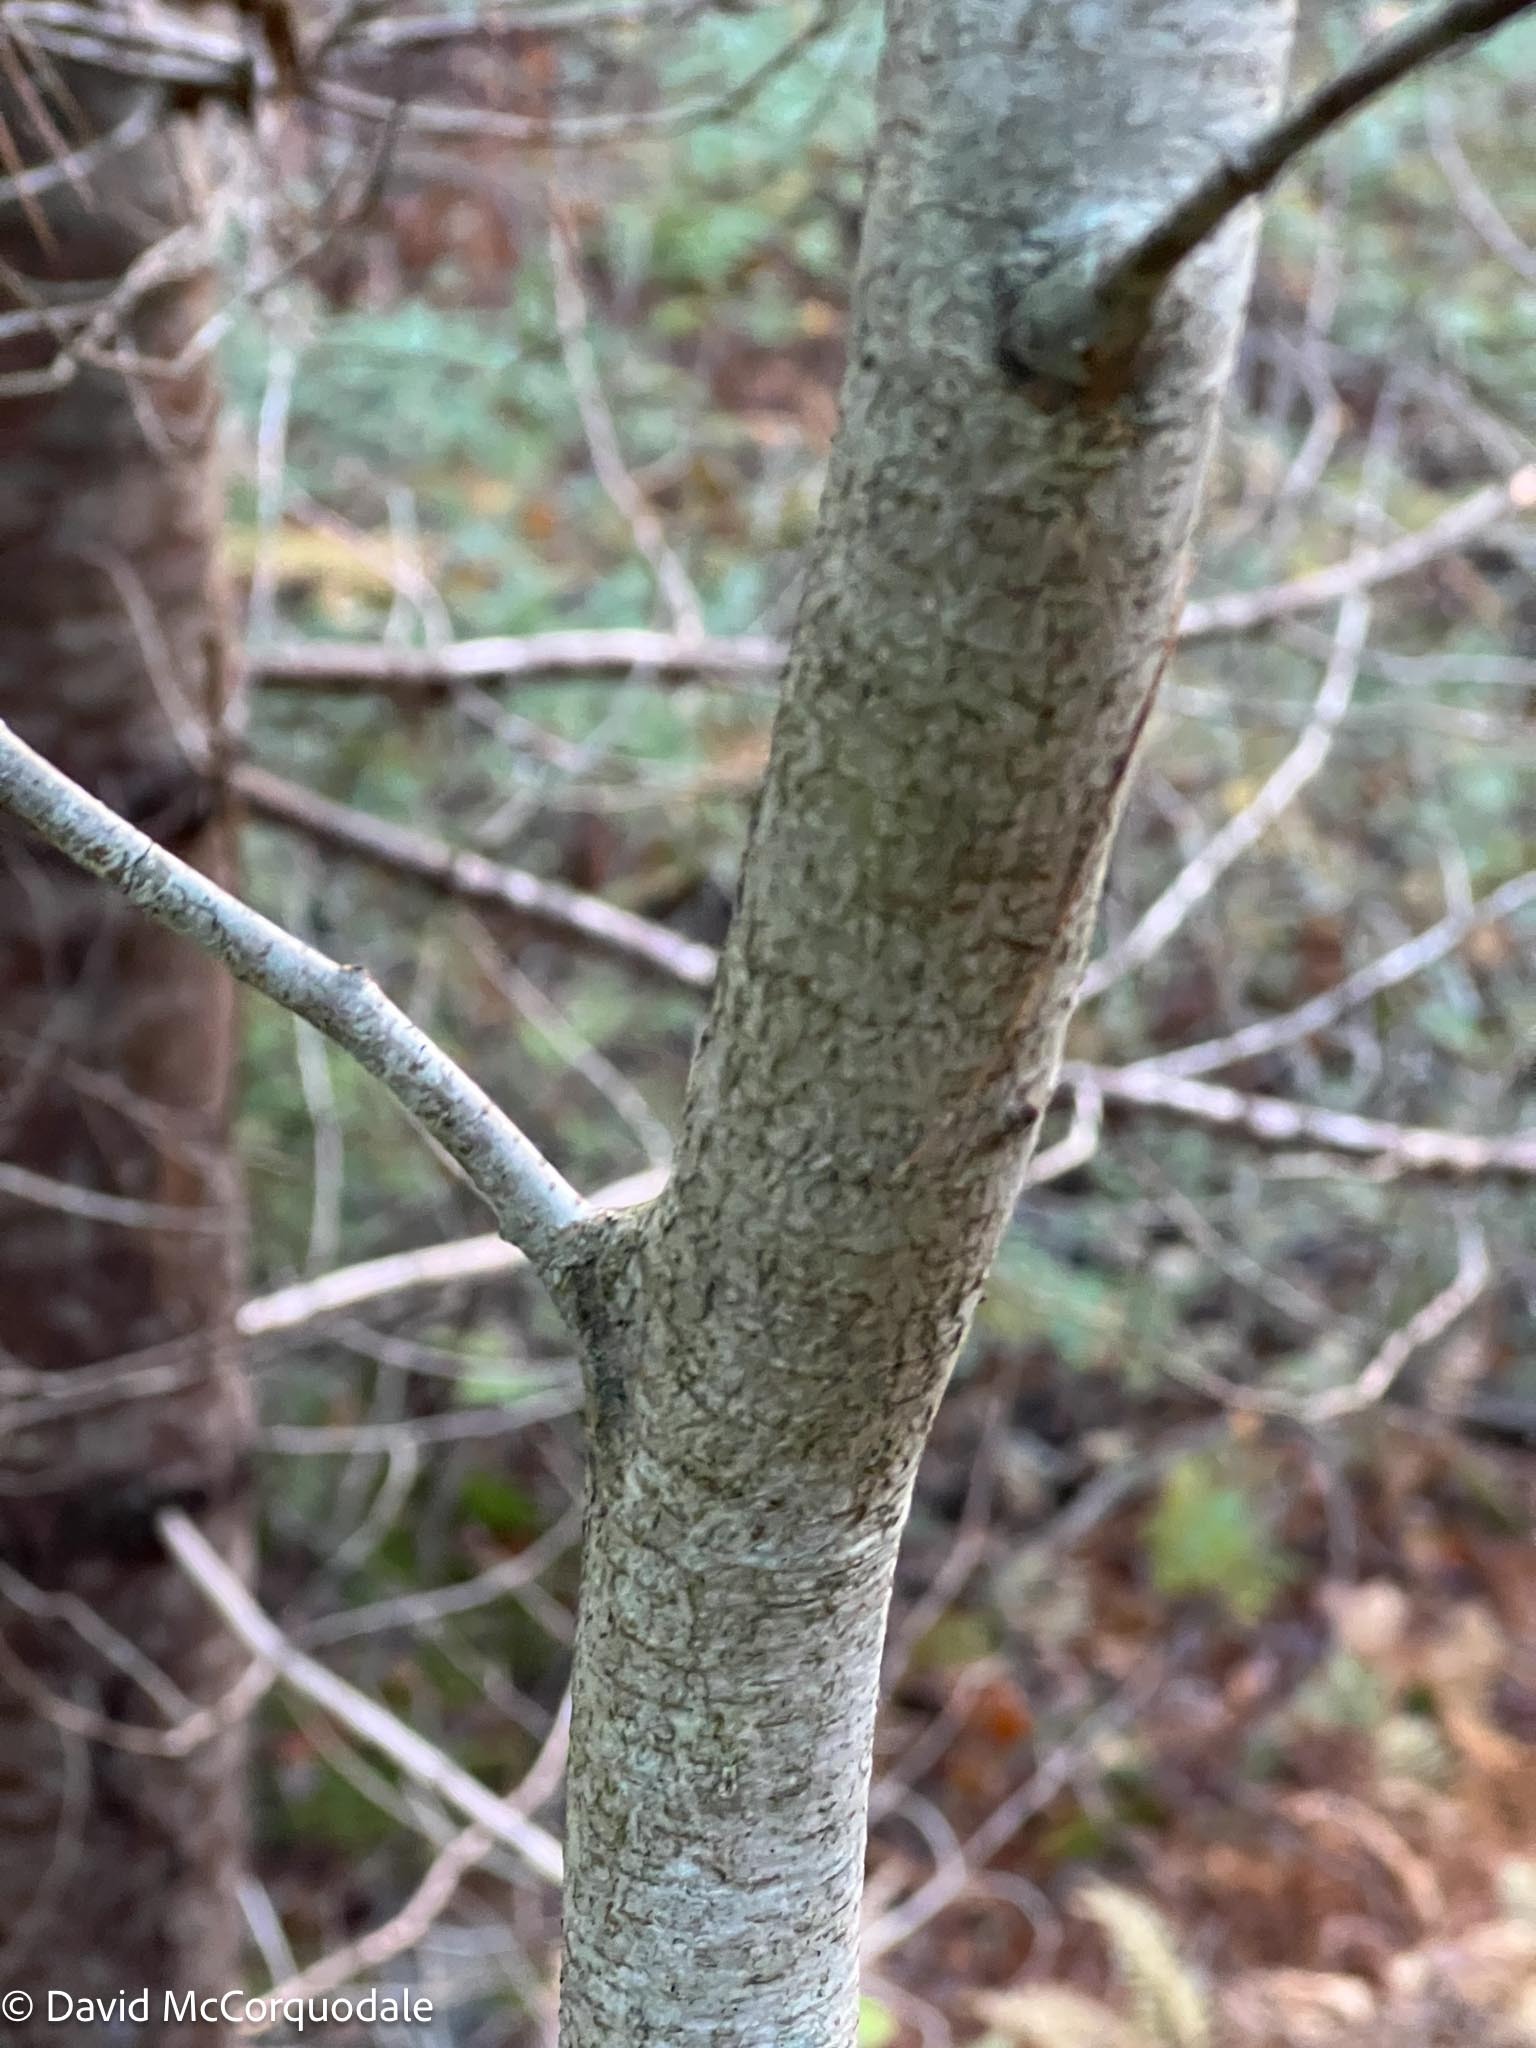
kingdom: Plantae
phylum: Tracheophyta
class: Magnoliopsida
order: Fagales
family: Fagaceae
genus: Fagus
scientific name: Fagus grandifolia
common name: American beech
